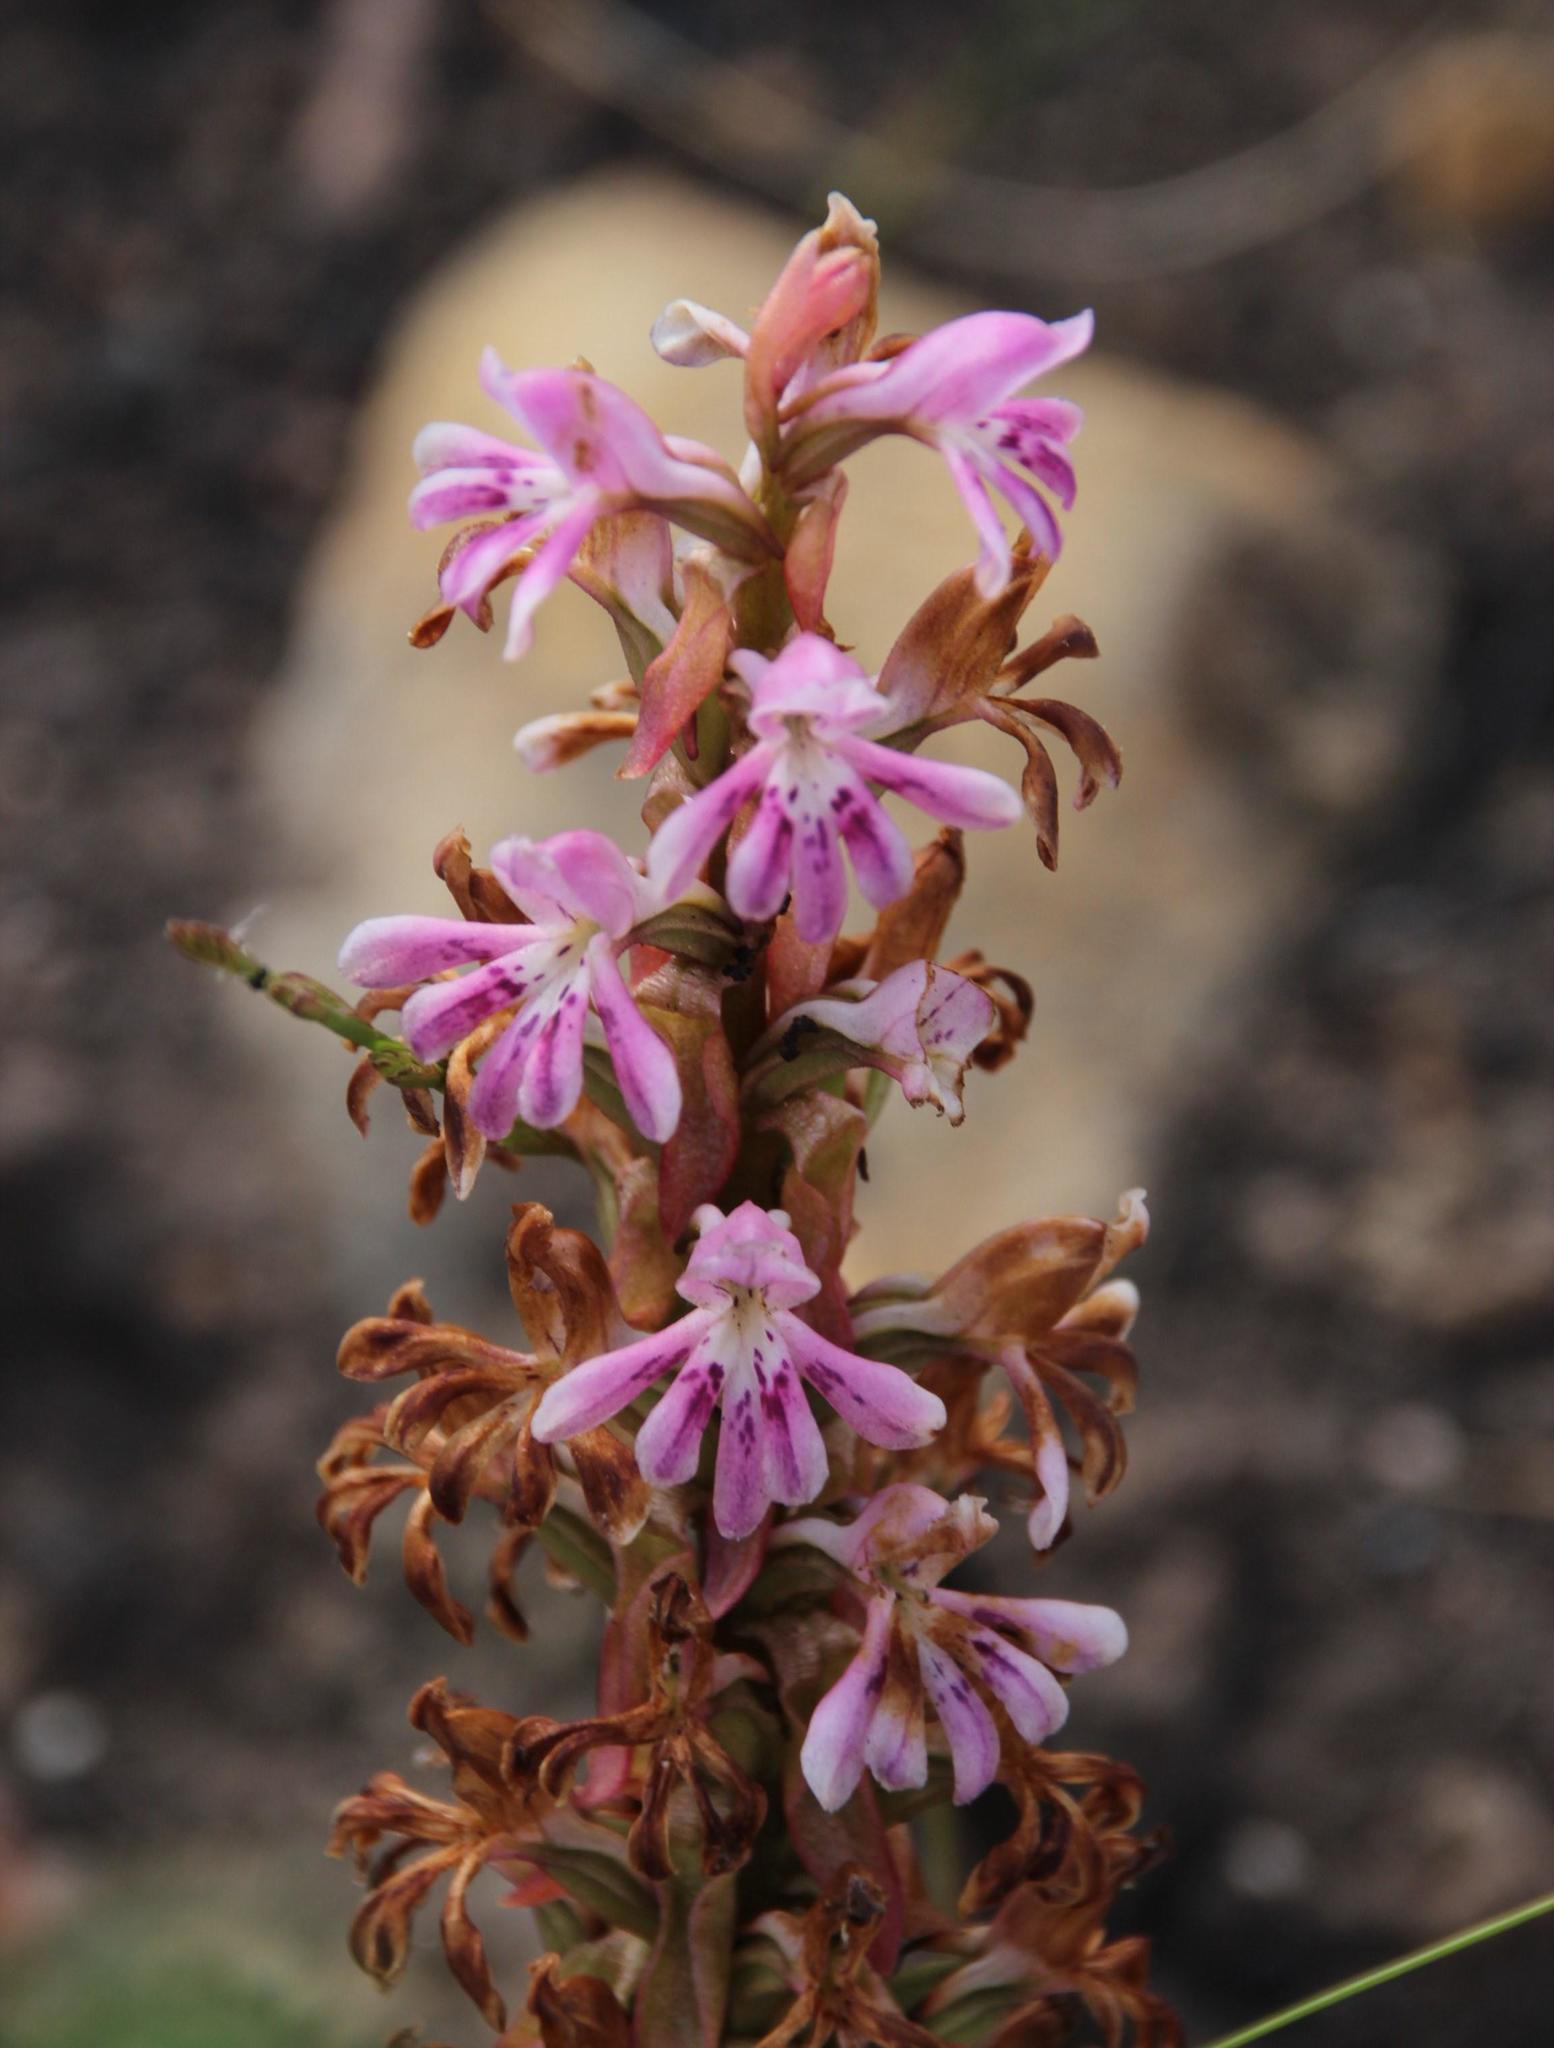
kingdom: Plantae
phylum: Tracheophyta
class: Liliopsida
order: Asparagales
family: Orchidaceae
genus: Satyrium
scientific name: Satyrium erectum
